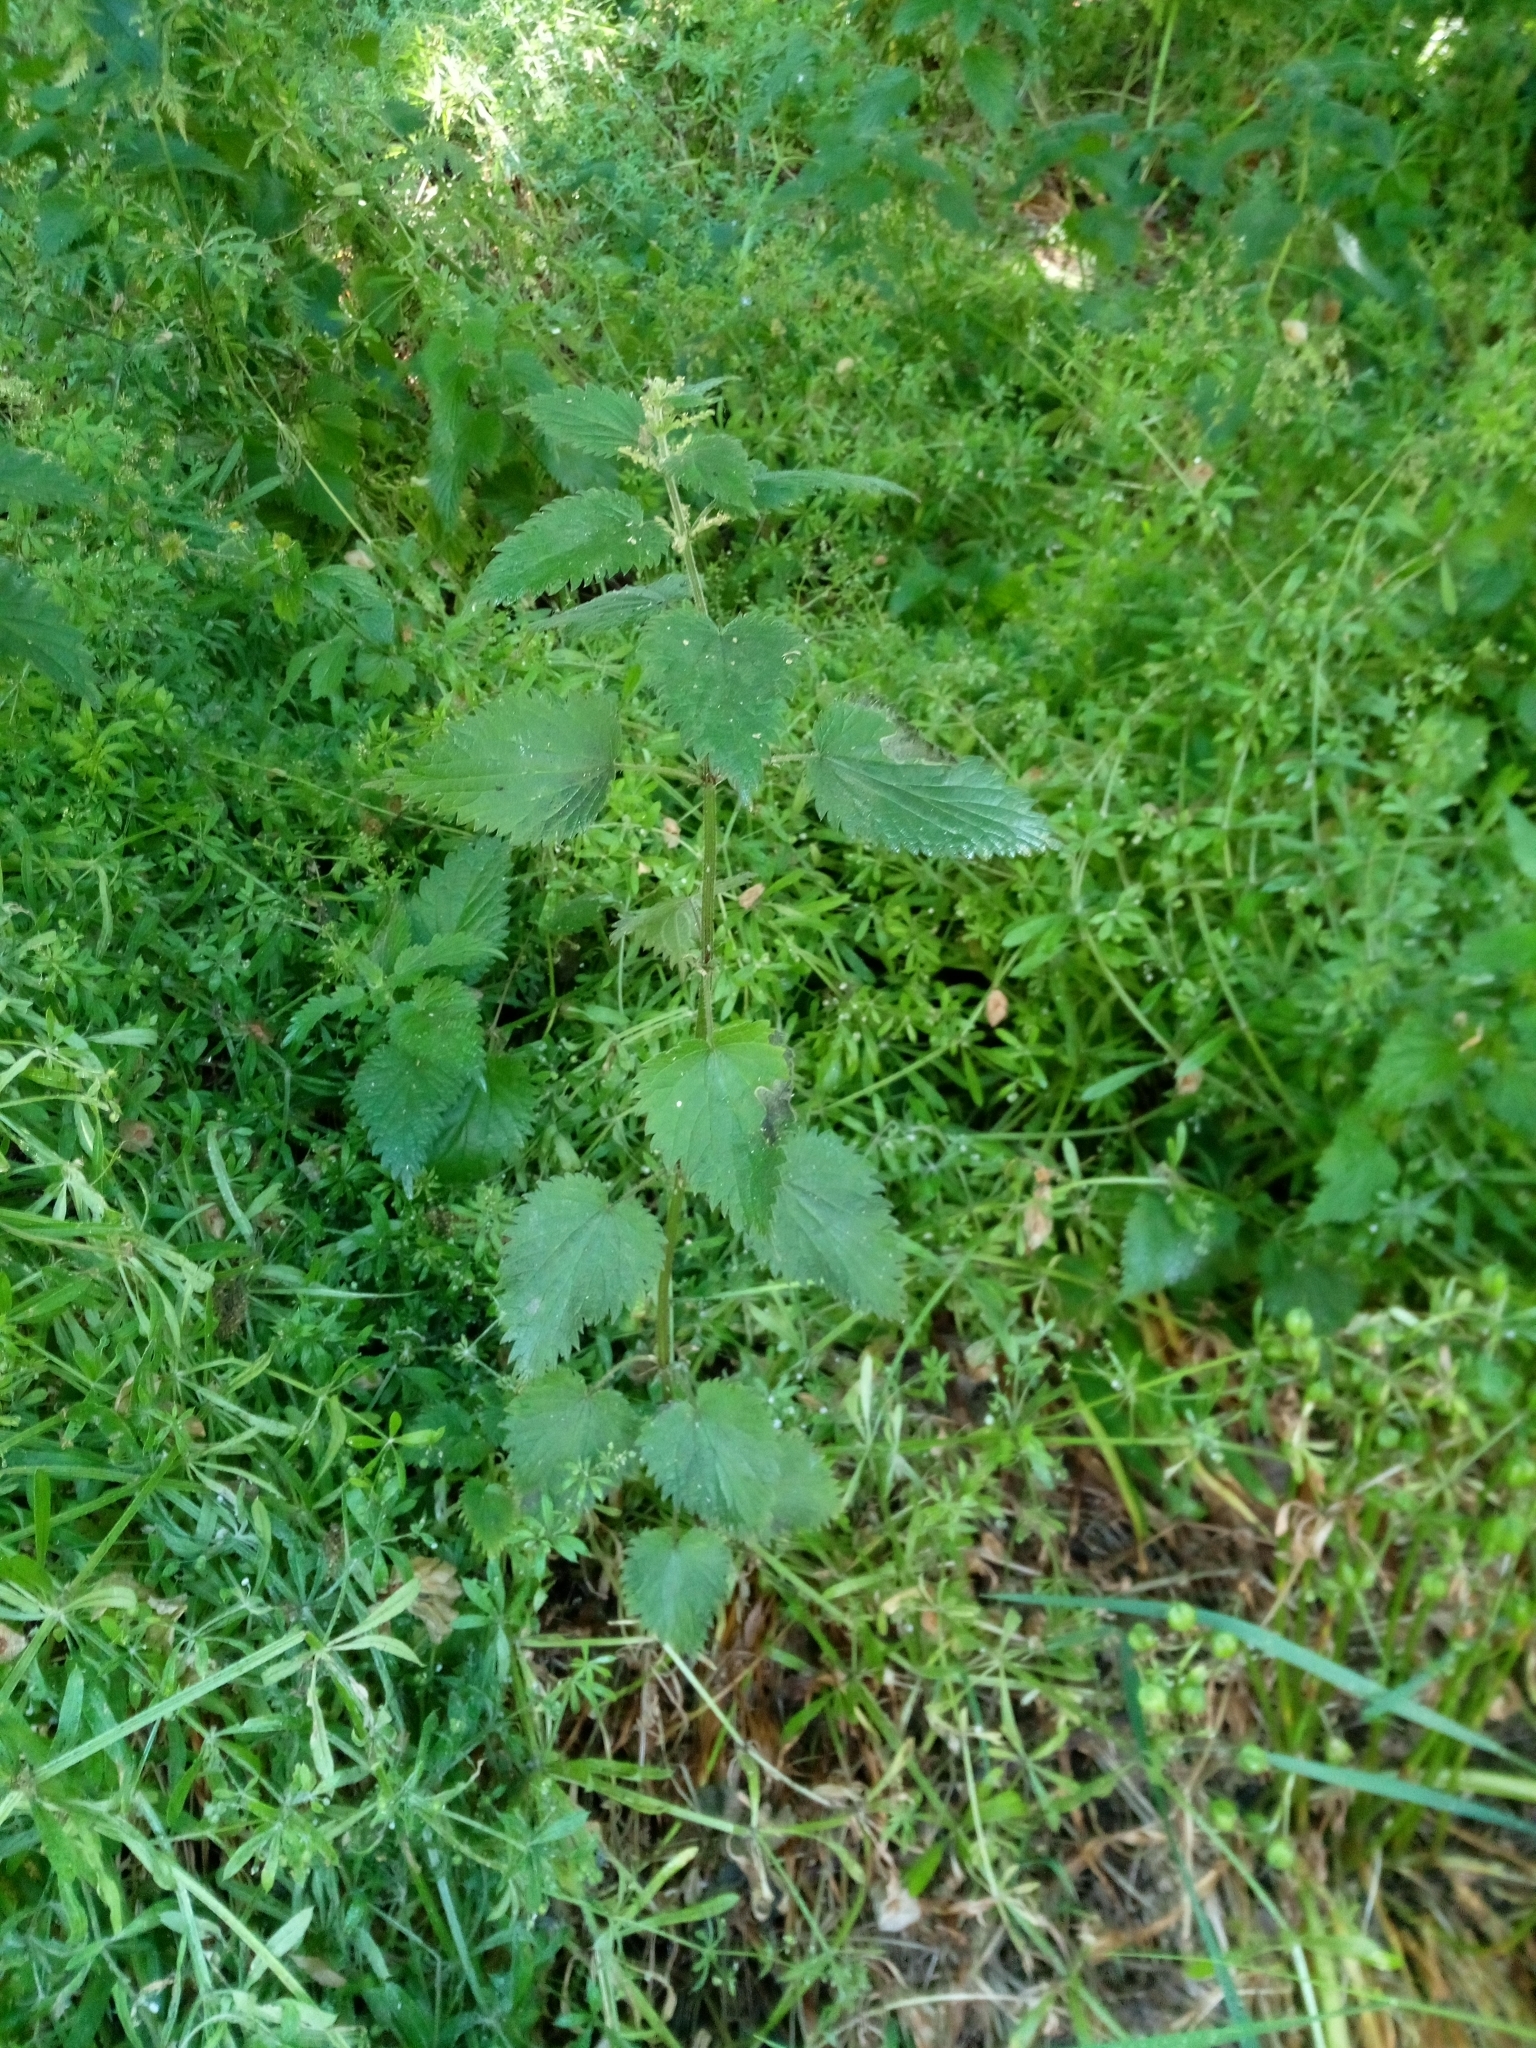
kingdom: Plantae
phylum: Tracheophyta
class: Magnoliopsida
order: Rosales
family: Urticaceae
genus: Urtica
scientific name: Urtica dioica
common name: Common nettle
